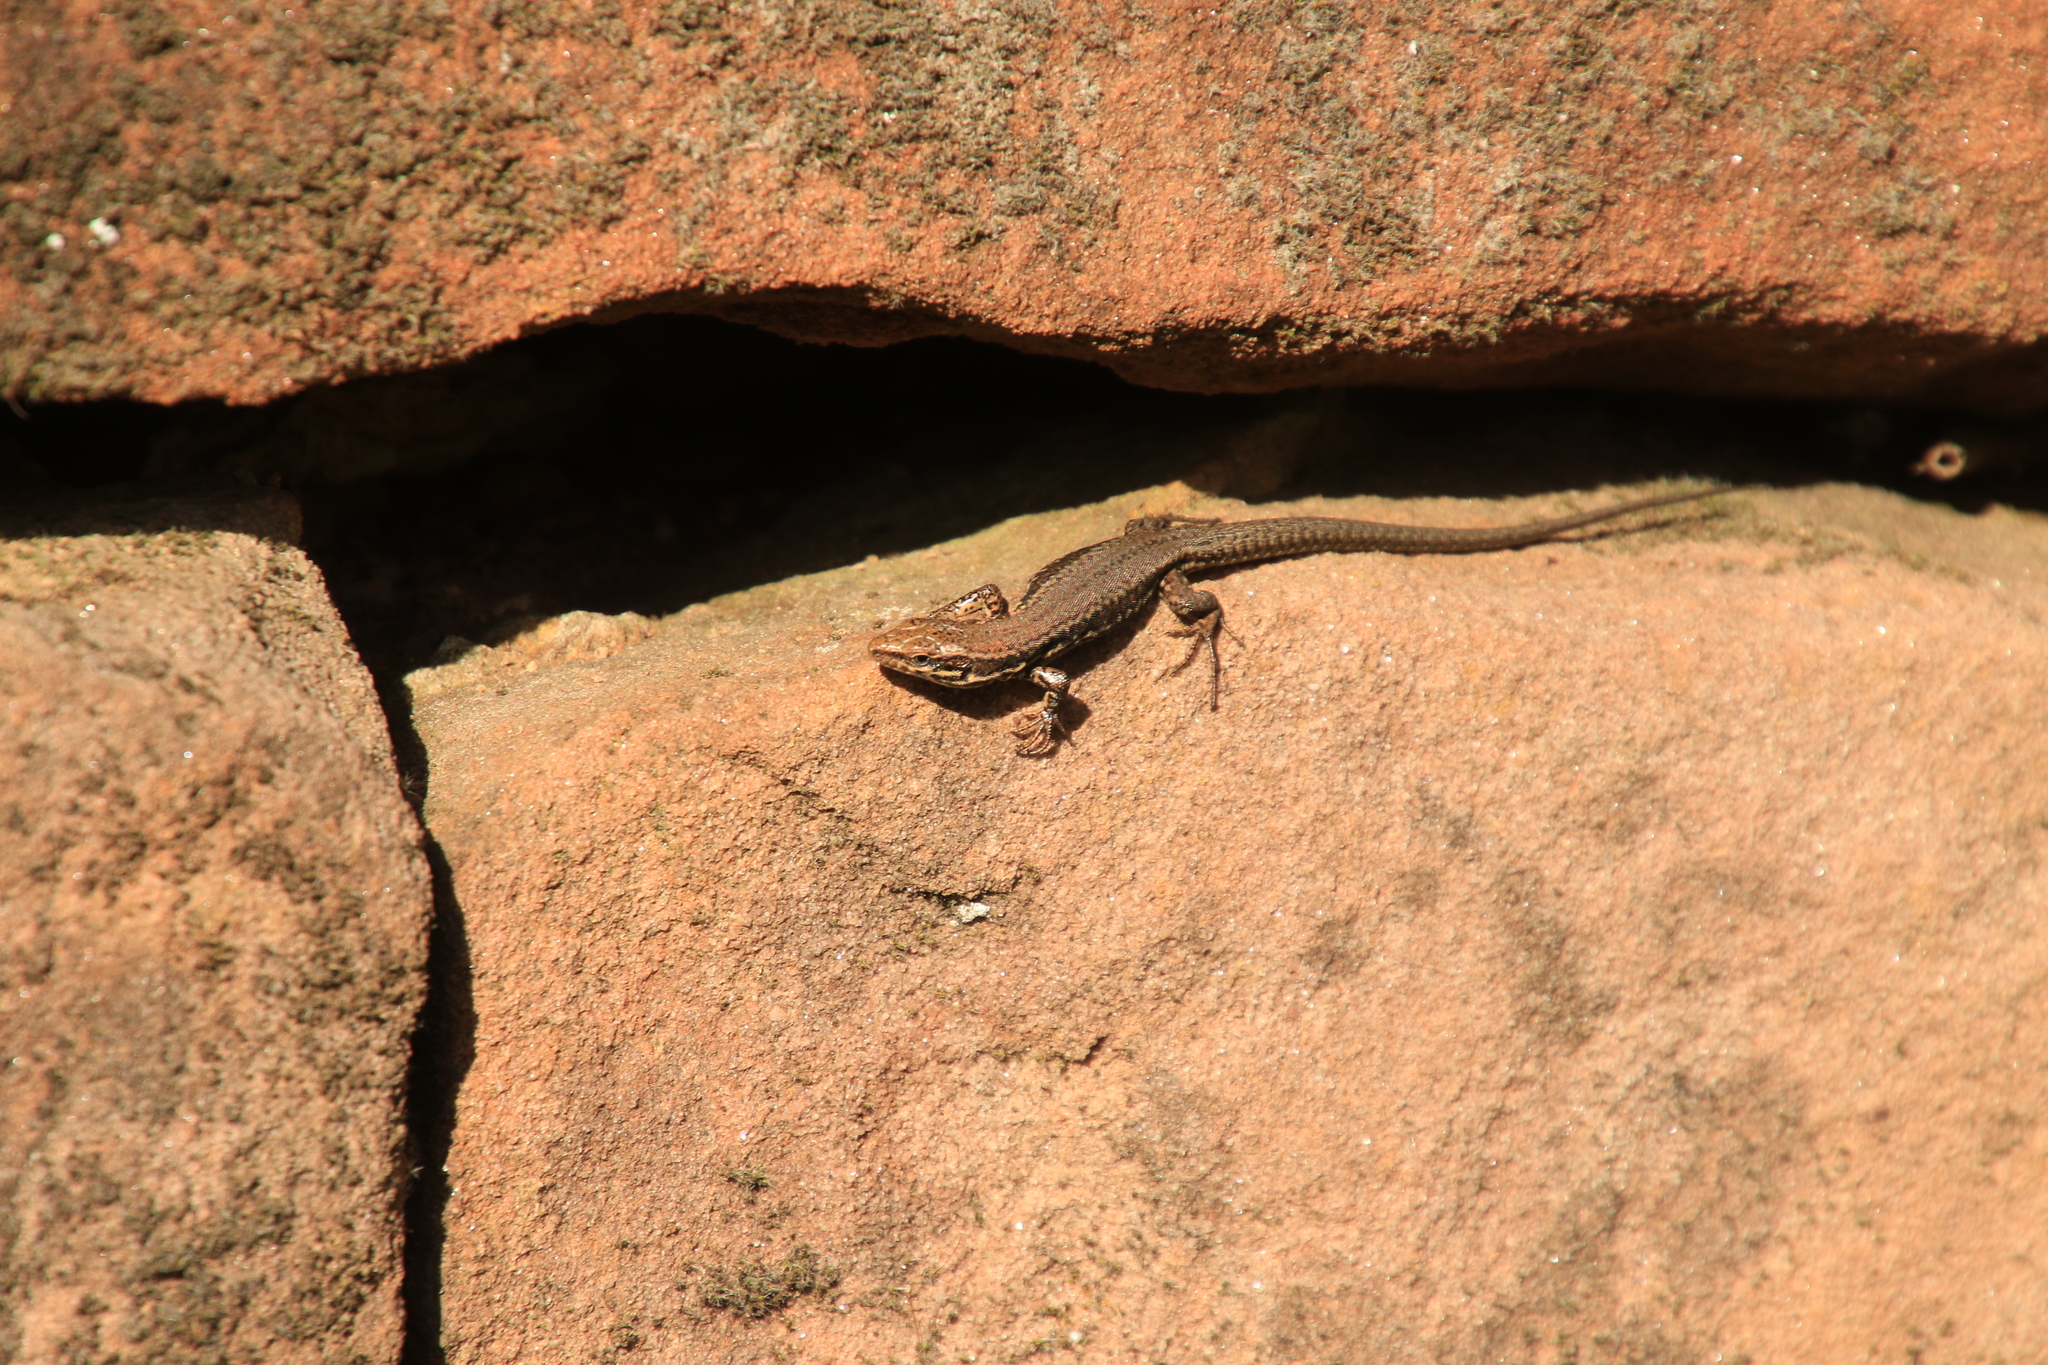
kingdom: Animalia
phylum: Chordata
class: Squamata
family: Lacertidae
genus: Podarcis
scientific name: Podarcis muralis
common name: Common wall lizard
